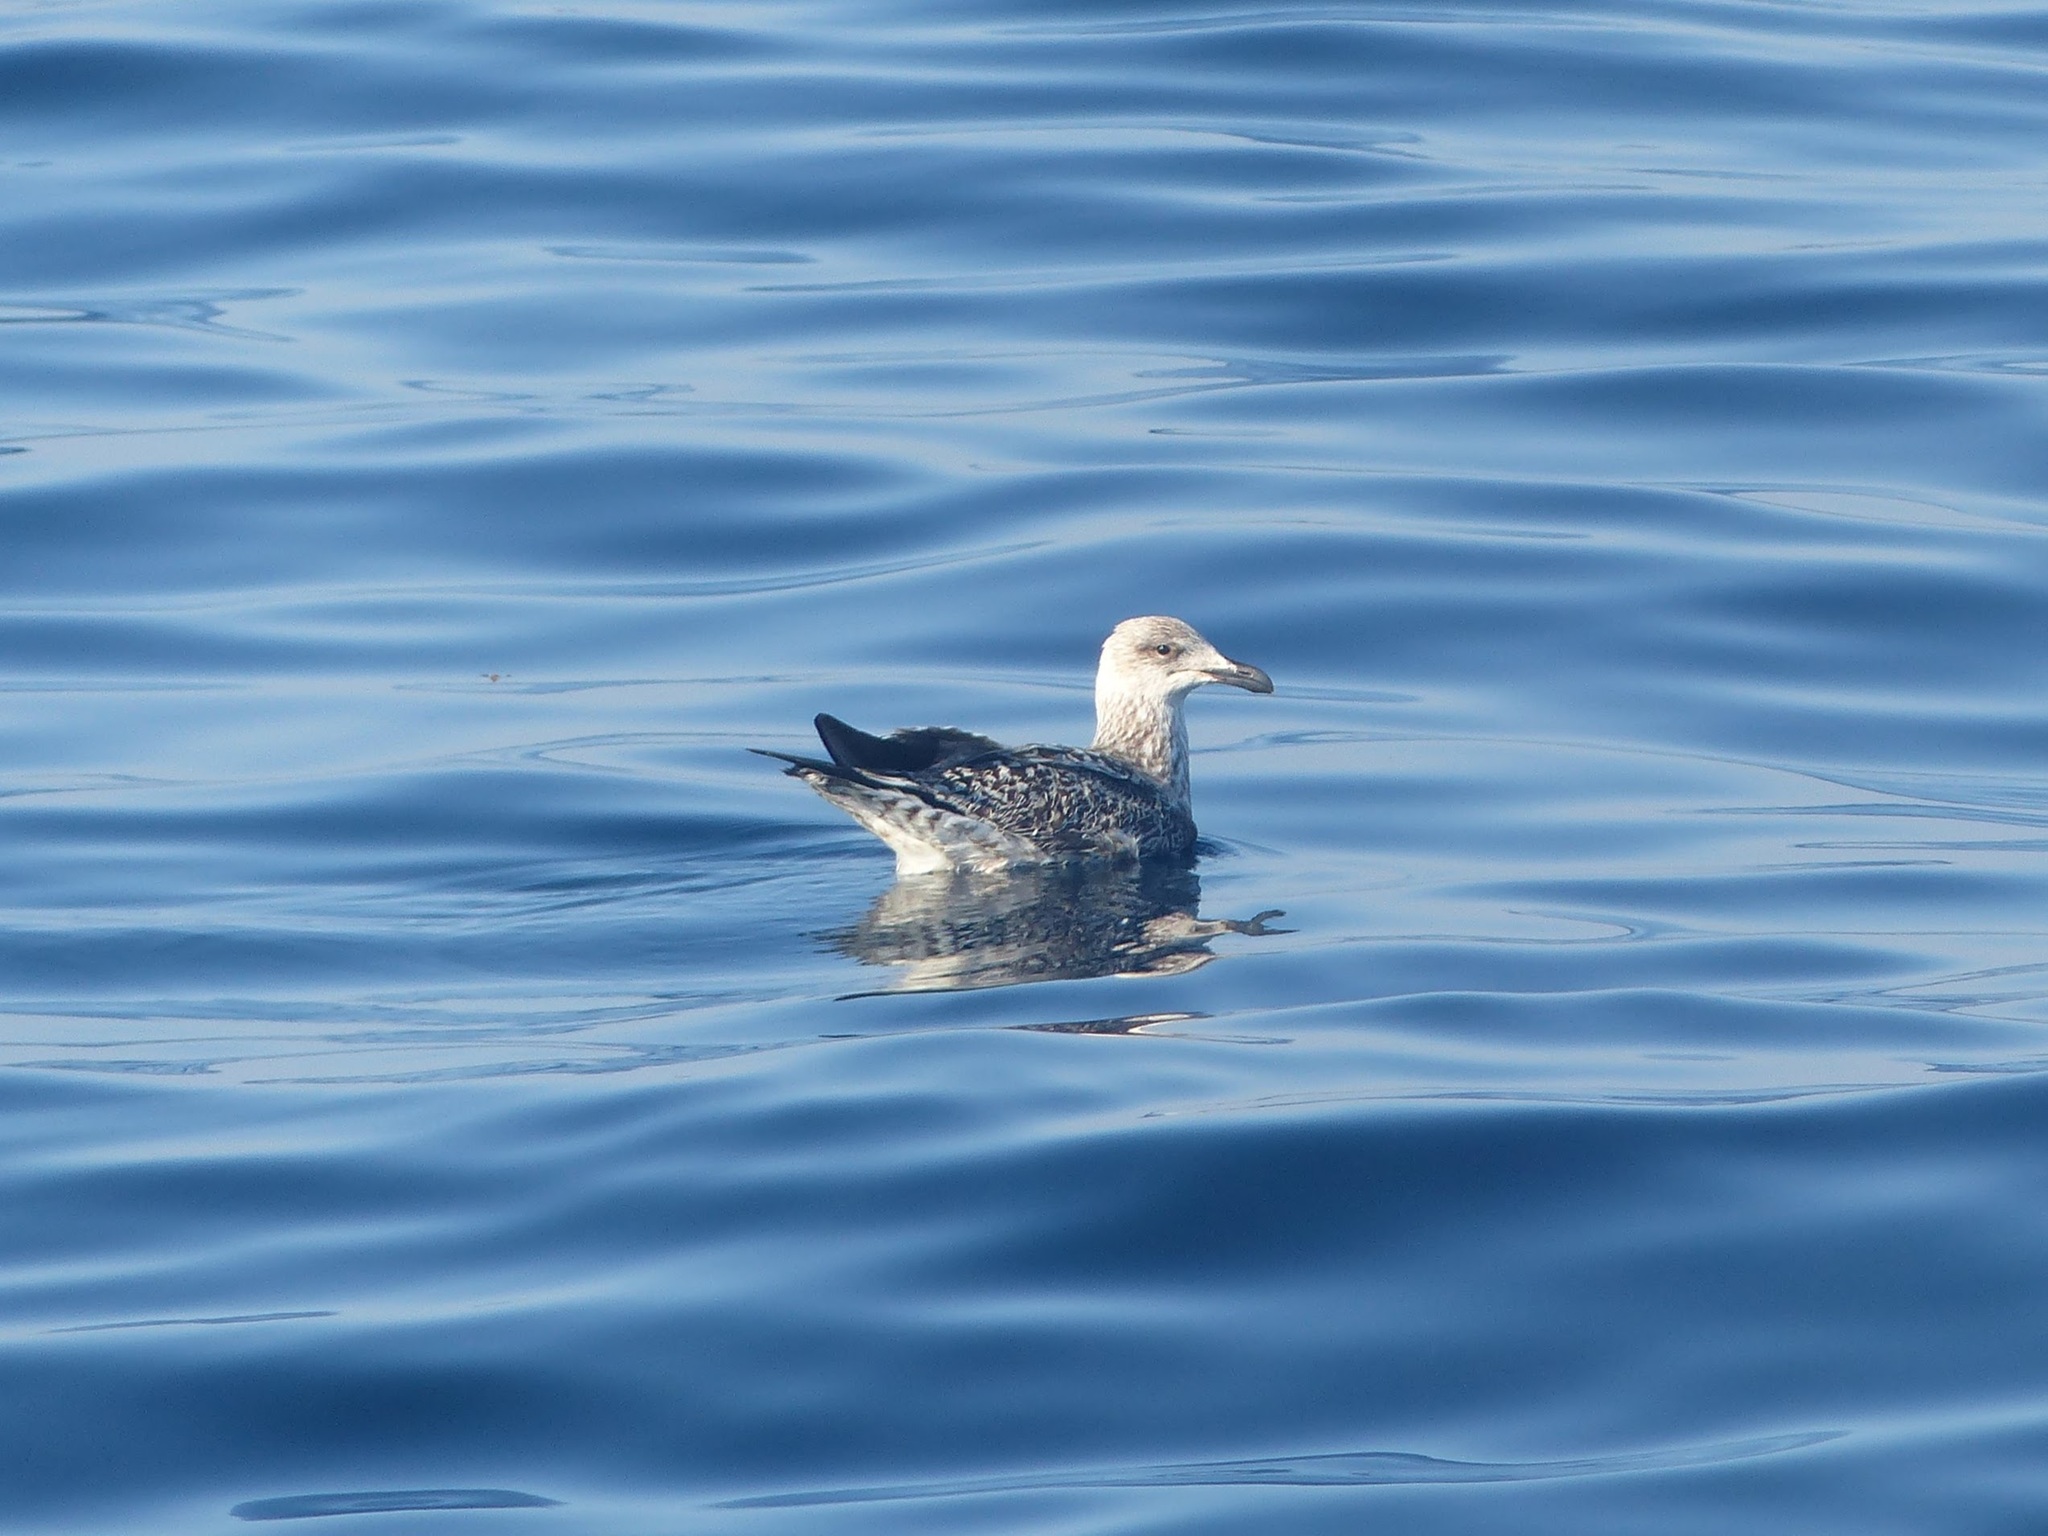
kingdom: Animalia
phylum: Chordata
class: Aves
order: Charadriiformes
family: Laridae
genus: Larus
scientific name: Larus marinus
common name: Great black-backed gull
